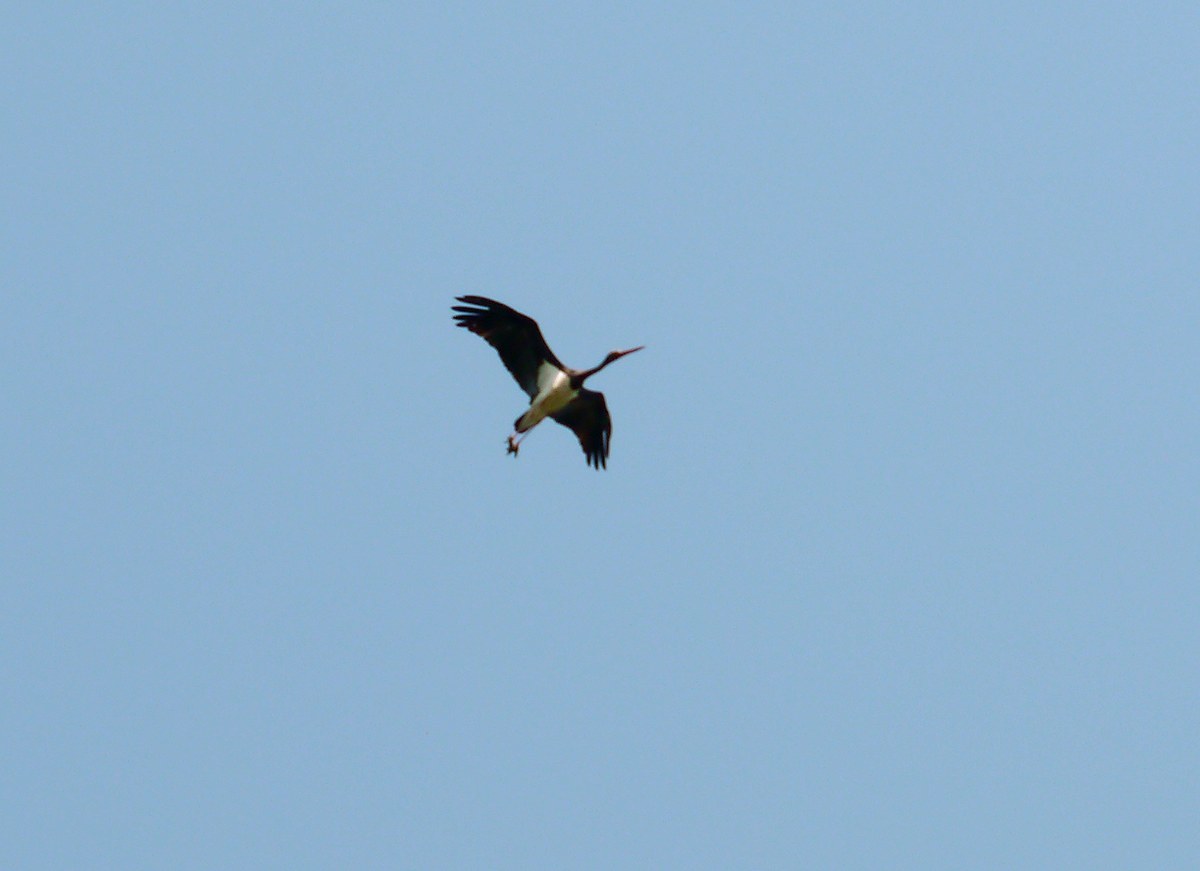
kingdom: Animalia
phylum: Chordata
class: Aves
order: Ciconiiformes
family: Ciconiidae
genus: Ciconia
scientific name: Ciconia nigra
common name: Black stork
